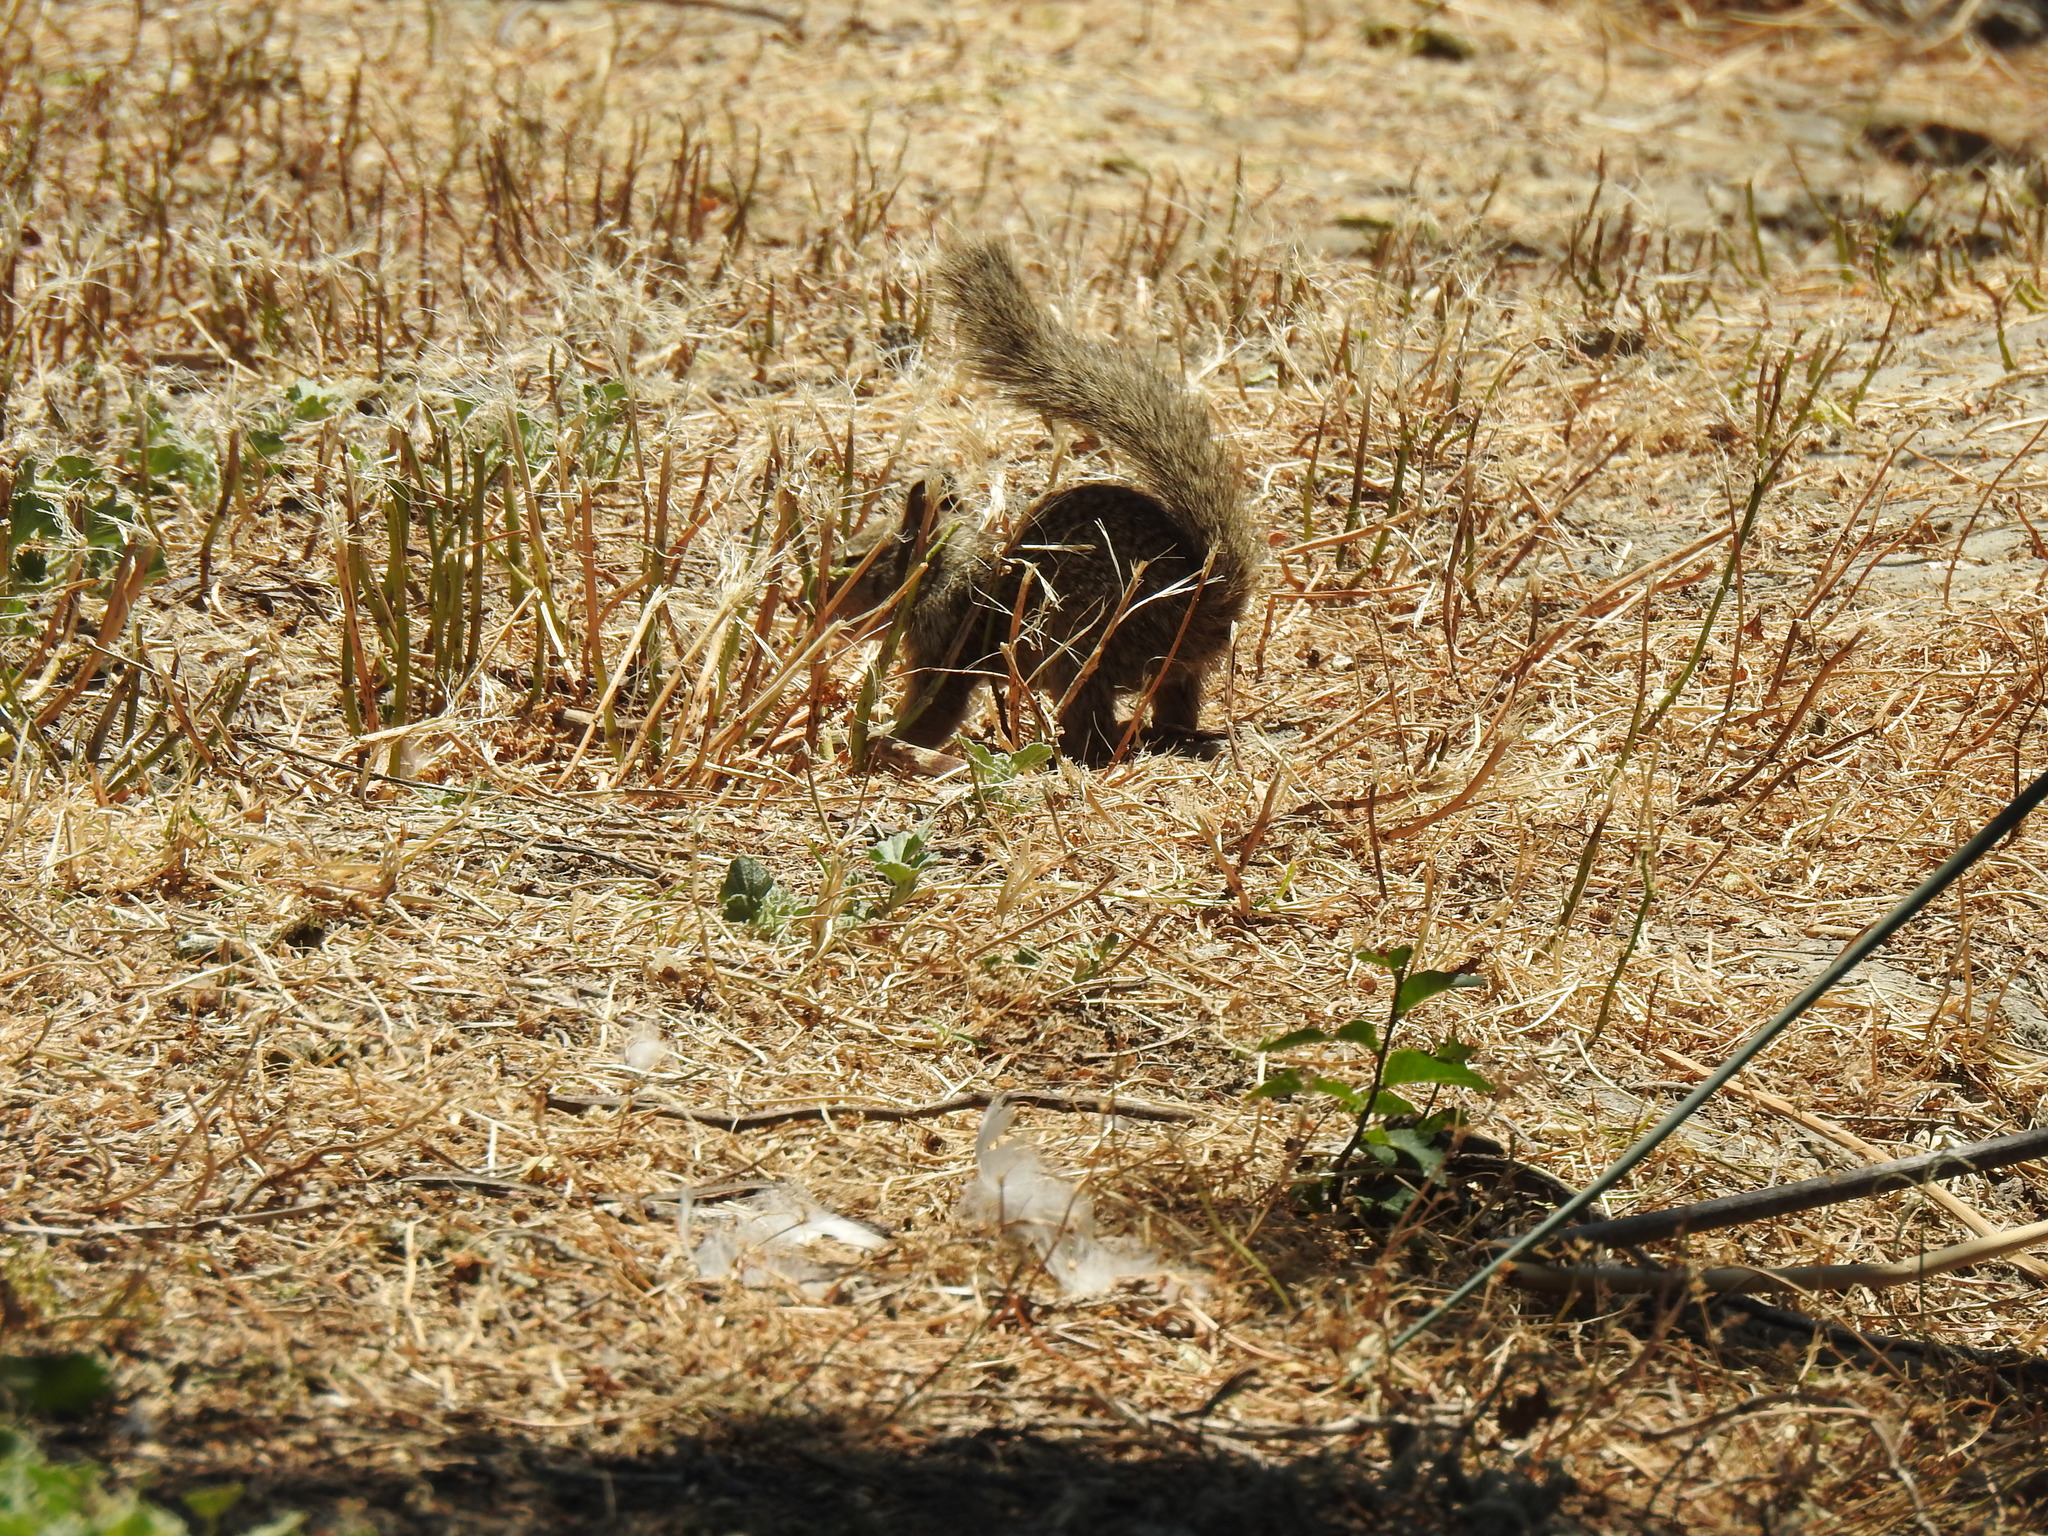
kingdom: Animalia
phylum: Chordata
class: Mammalia
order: Rodentia
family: Sciuridae
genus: Otospermophilus
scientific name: Otospermophilus beecheyi
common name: California ground squirrel
